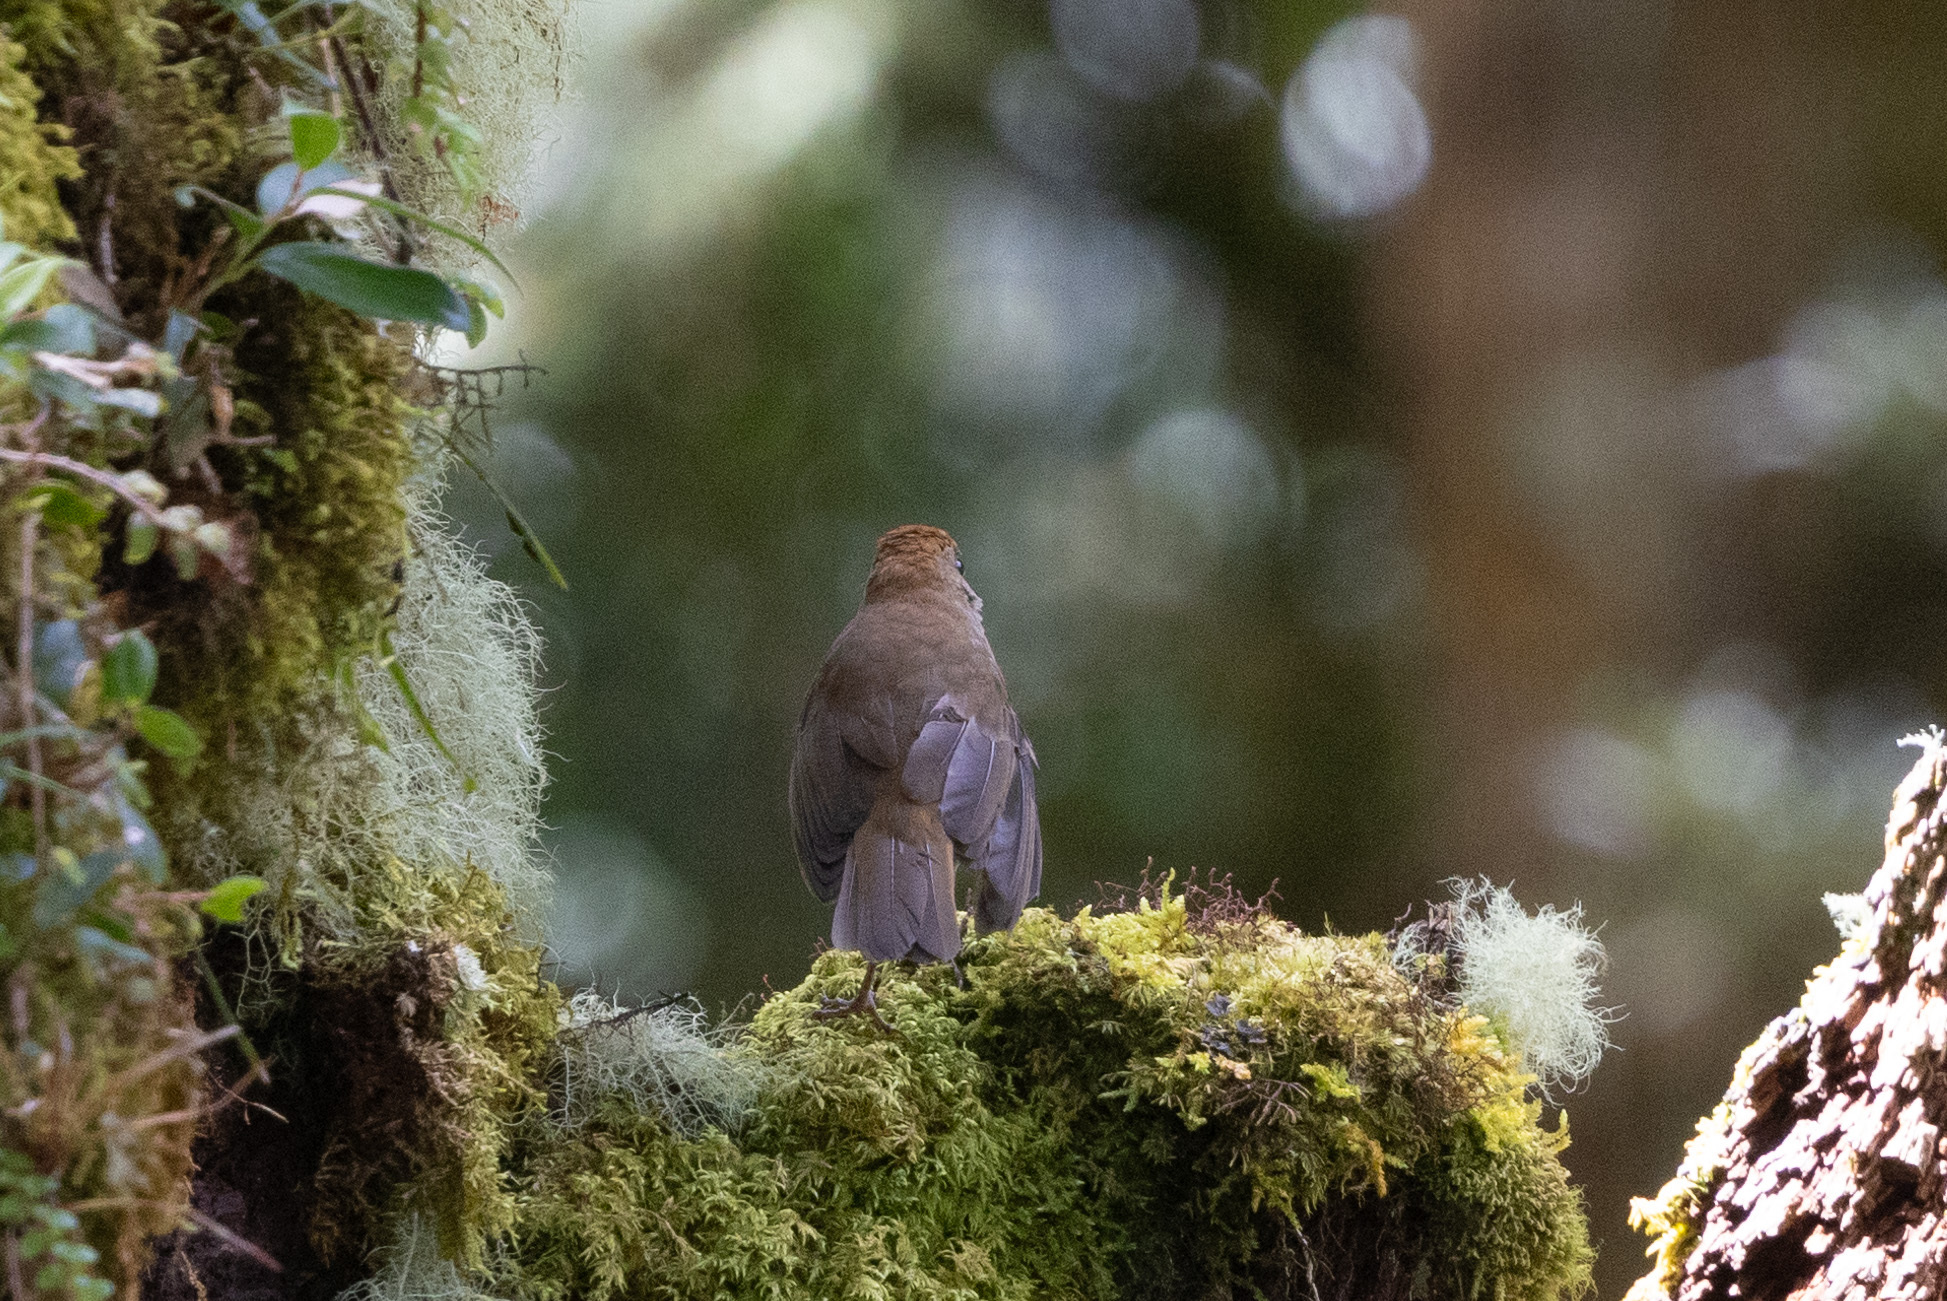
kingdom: Animalia
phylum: Chordata
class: Aves
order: Passeriformes
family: Turdidae
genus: Catharus
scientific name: Catharus frantzii
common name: Ruddy-capped nightingale-thrush
